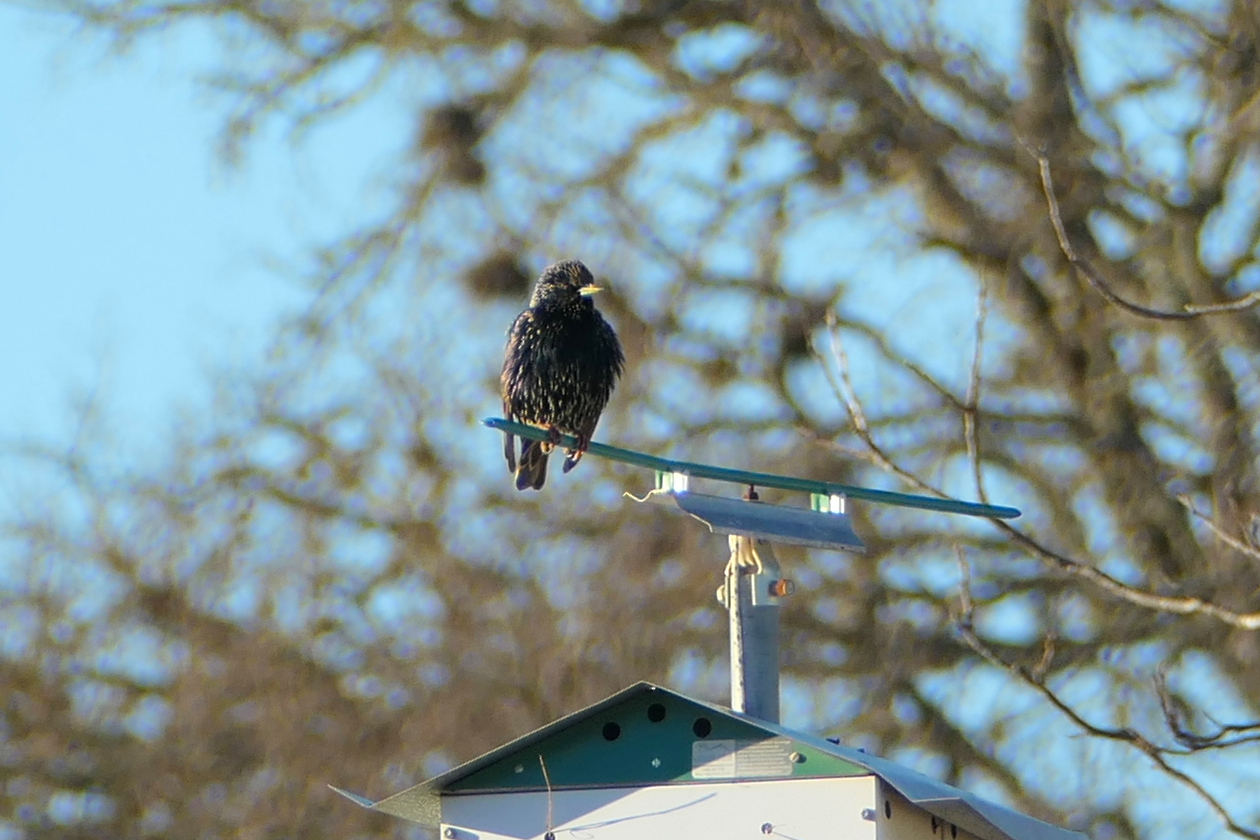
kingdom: Animalia
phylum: Chordata
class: Aves
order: Passeriformes
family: Sturnidae
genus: Sturnus
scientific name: Sturnus vulgaris
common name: Common starling
